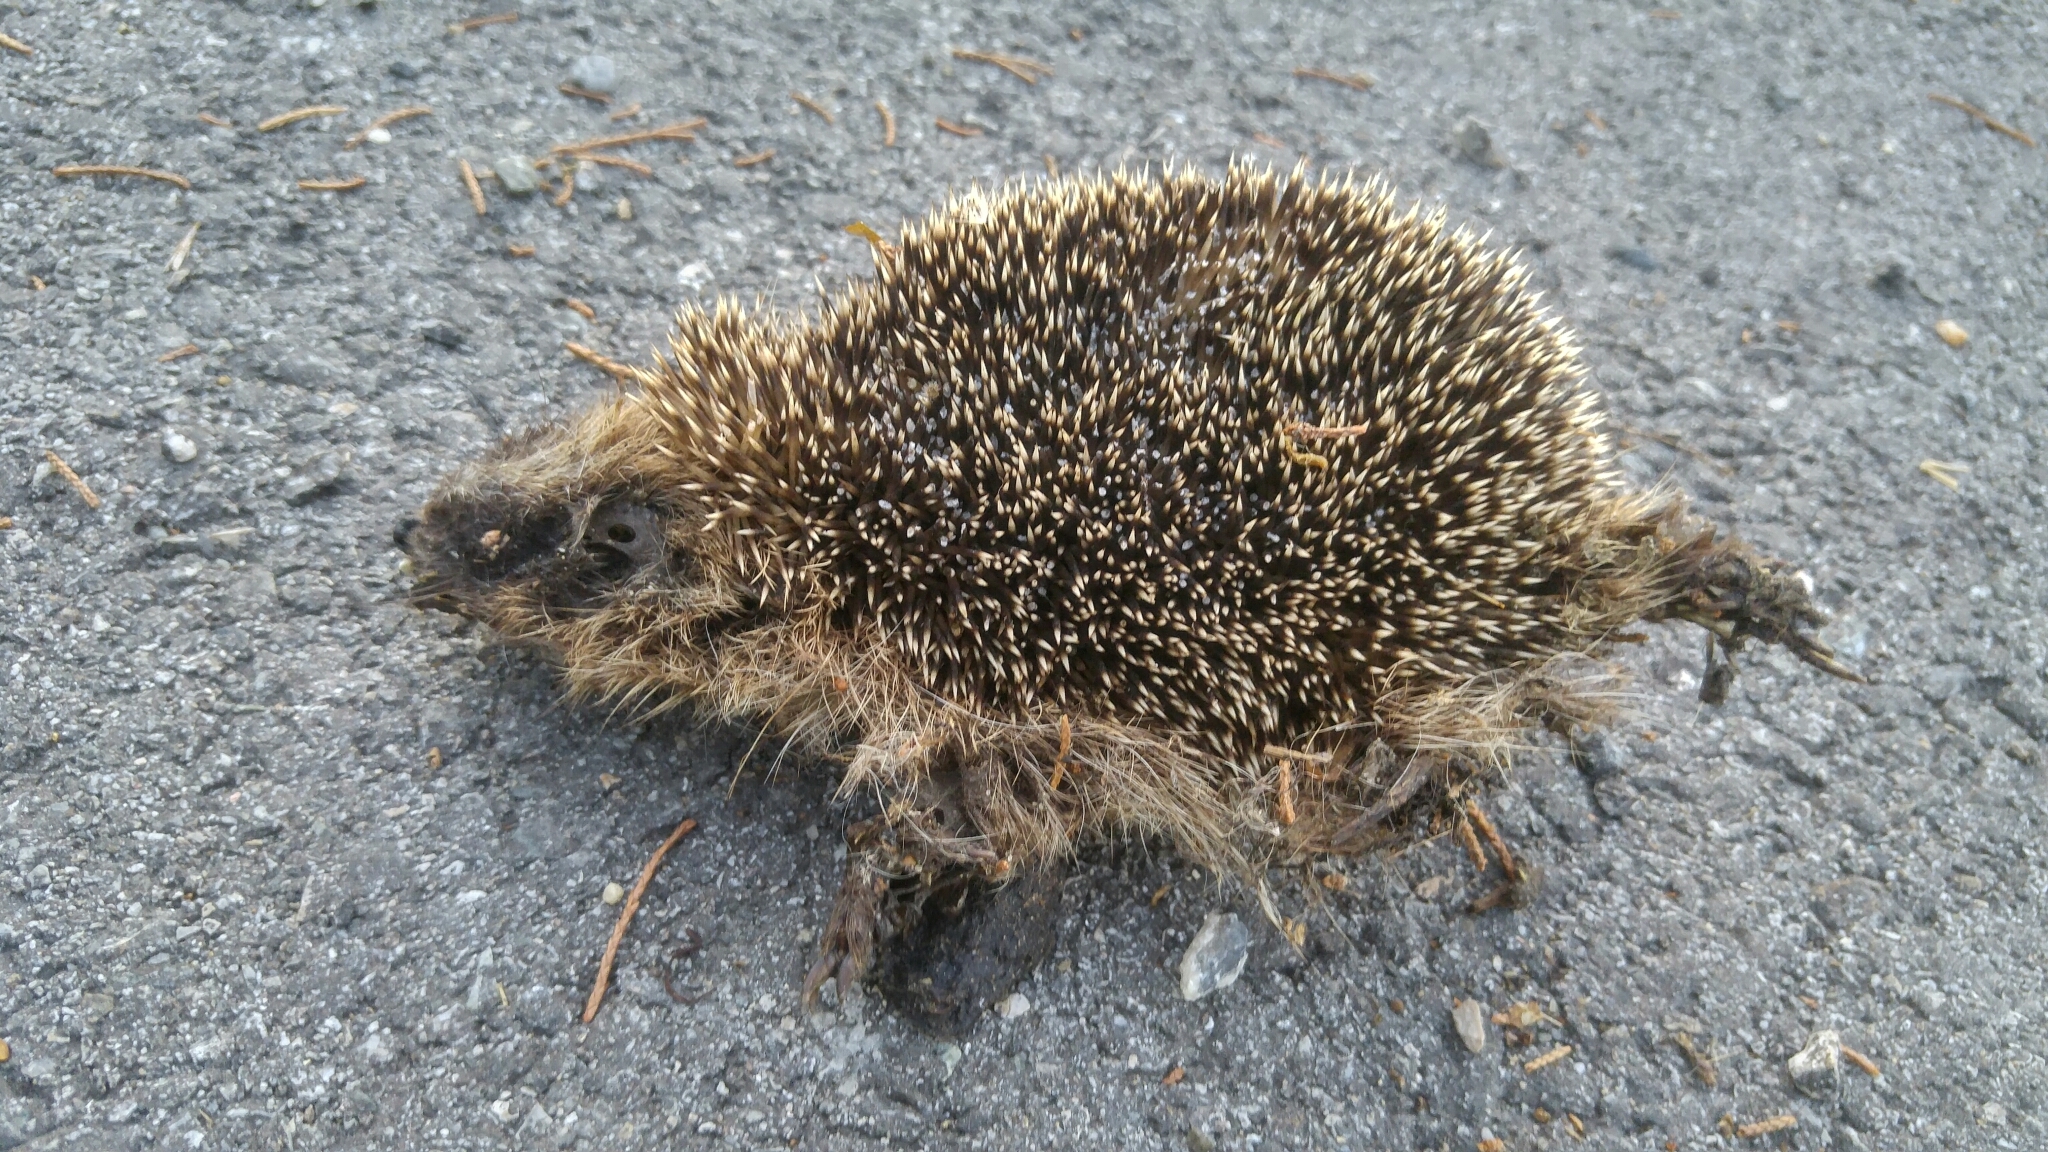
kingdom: Animalia
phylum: Chordata
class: Mammalia
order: Erinaceomorpha
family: Erinaceidae
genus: Erinaceus
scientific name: Erinaceus europaeus
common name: West european hedgehog
